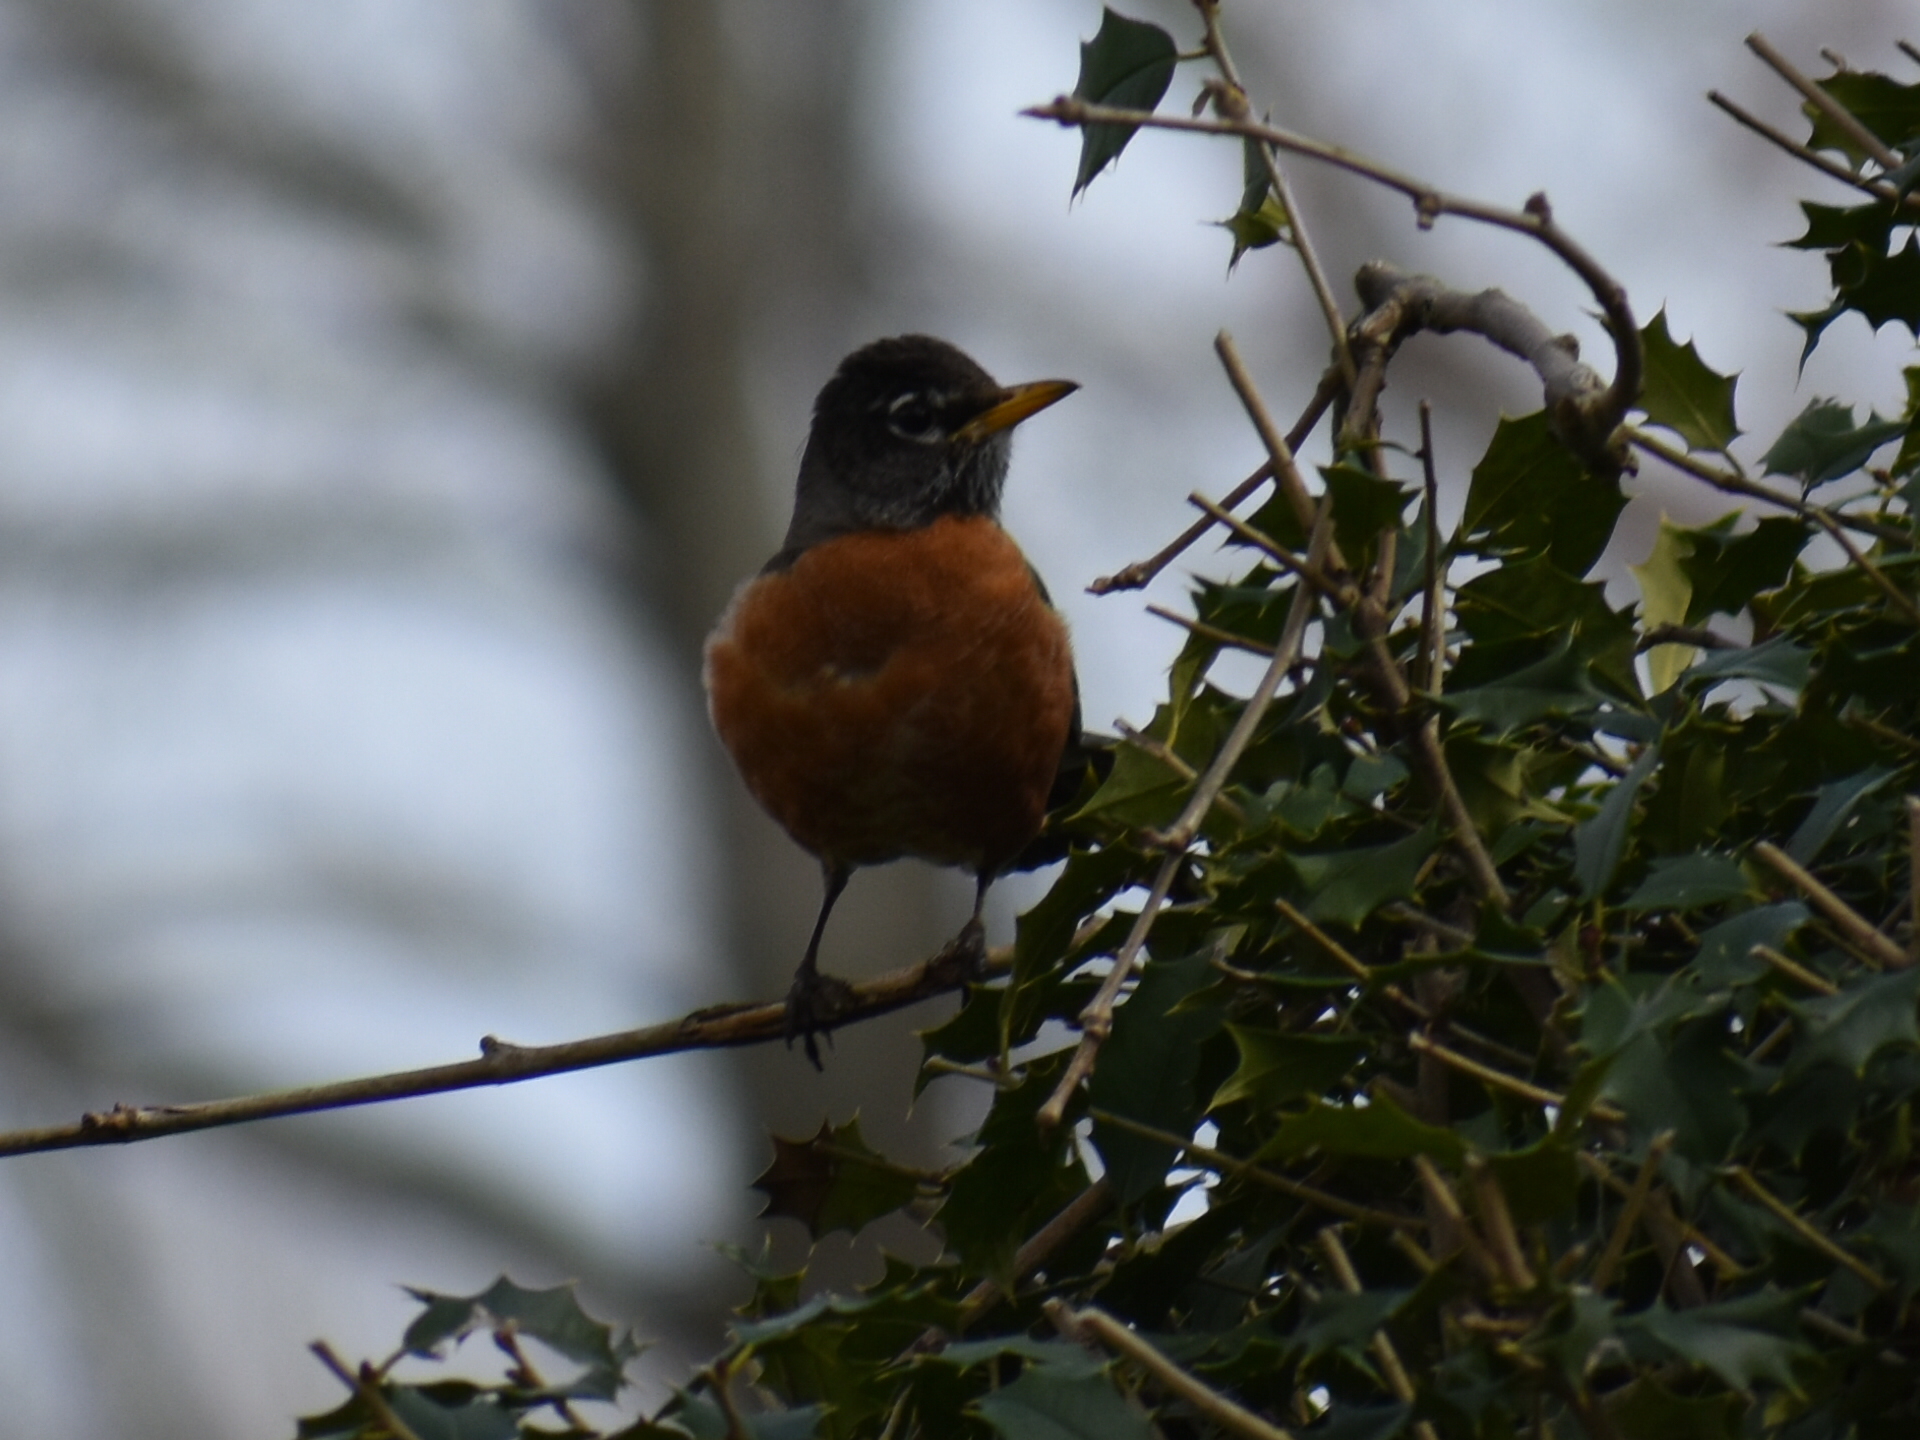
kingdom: Animalia
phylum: Chordata
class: Aves
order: Passeriformes
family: Turdidae
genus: Turdus
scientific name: Turdus migratorius
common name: American robin
